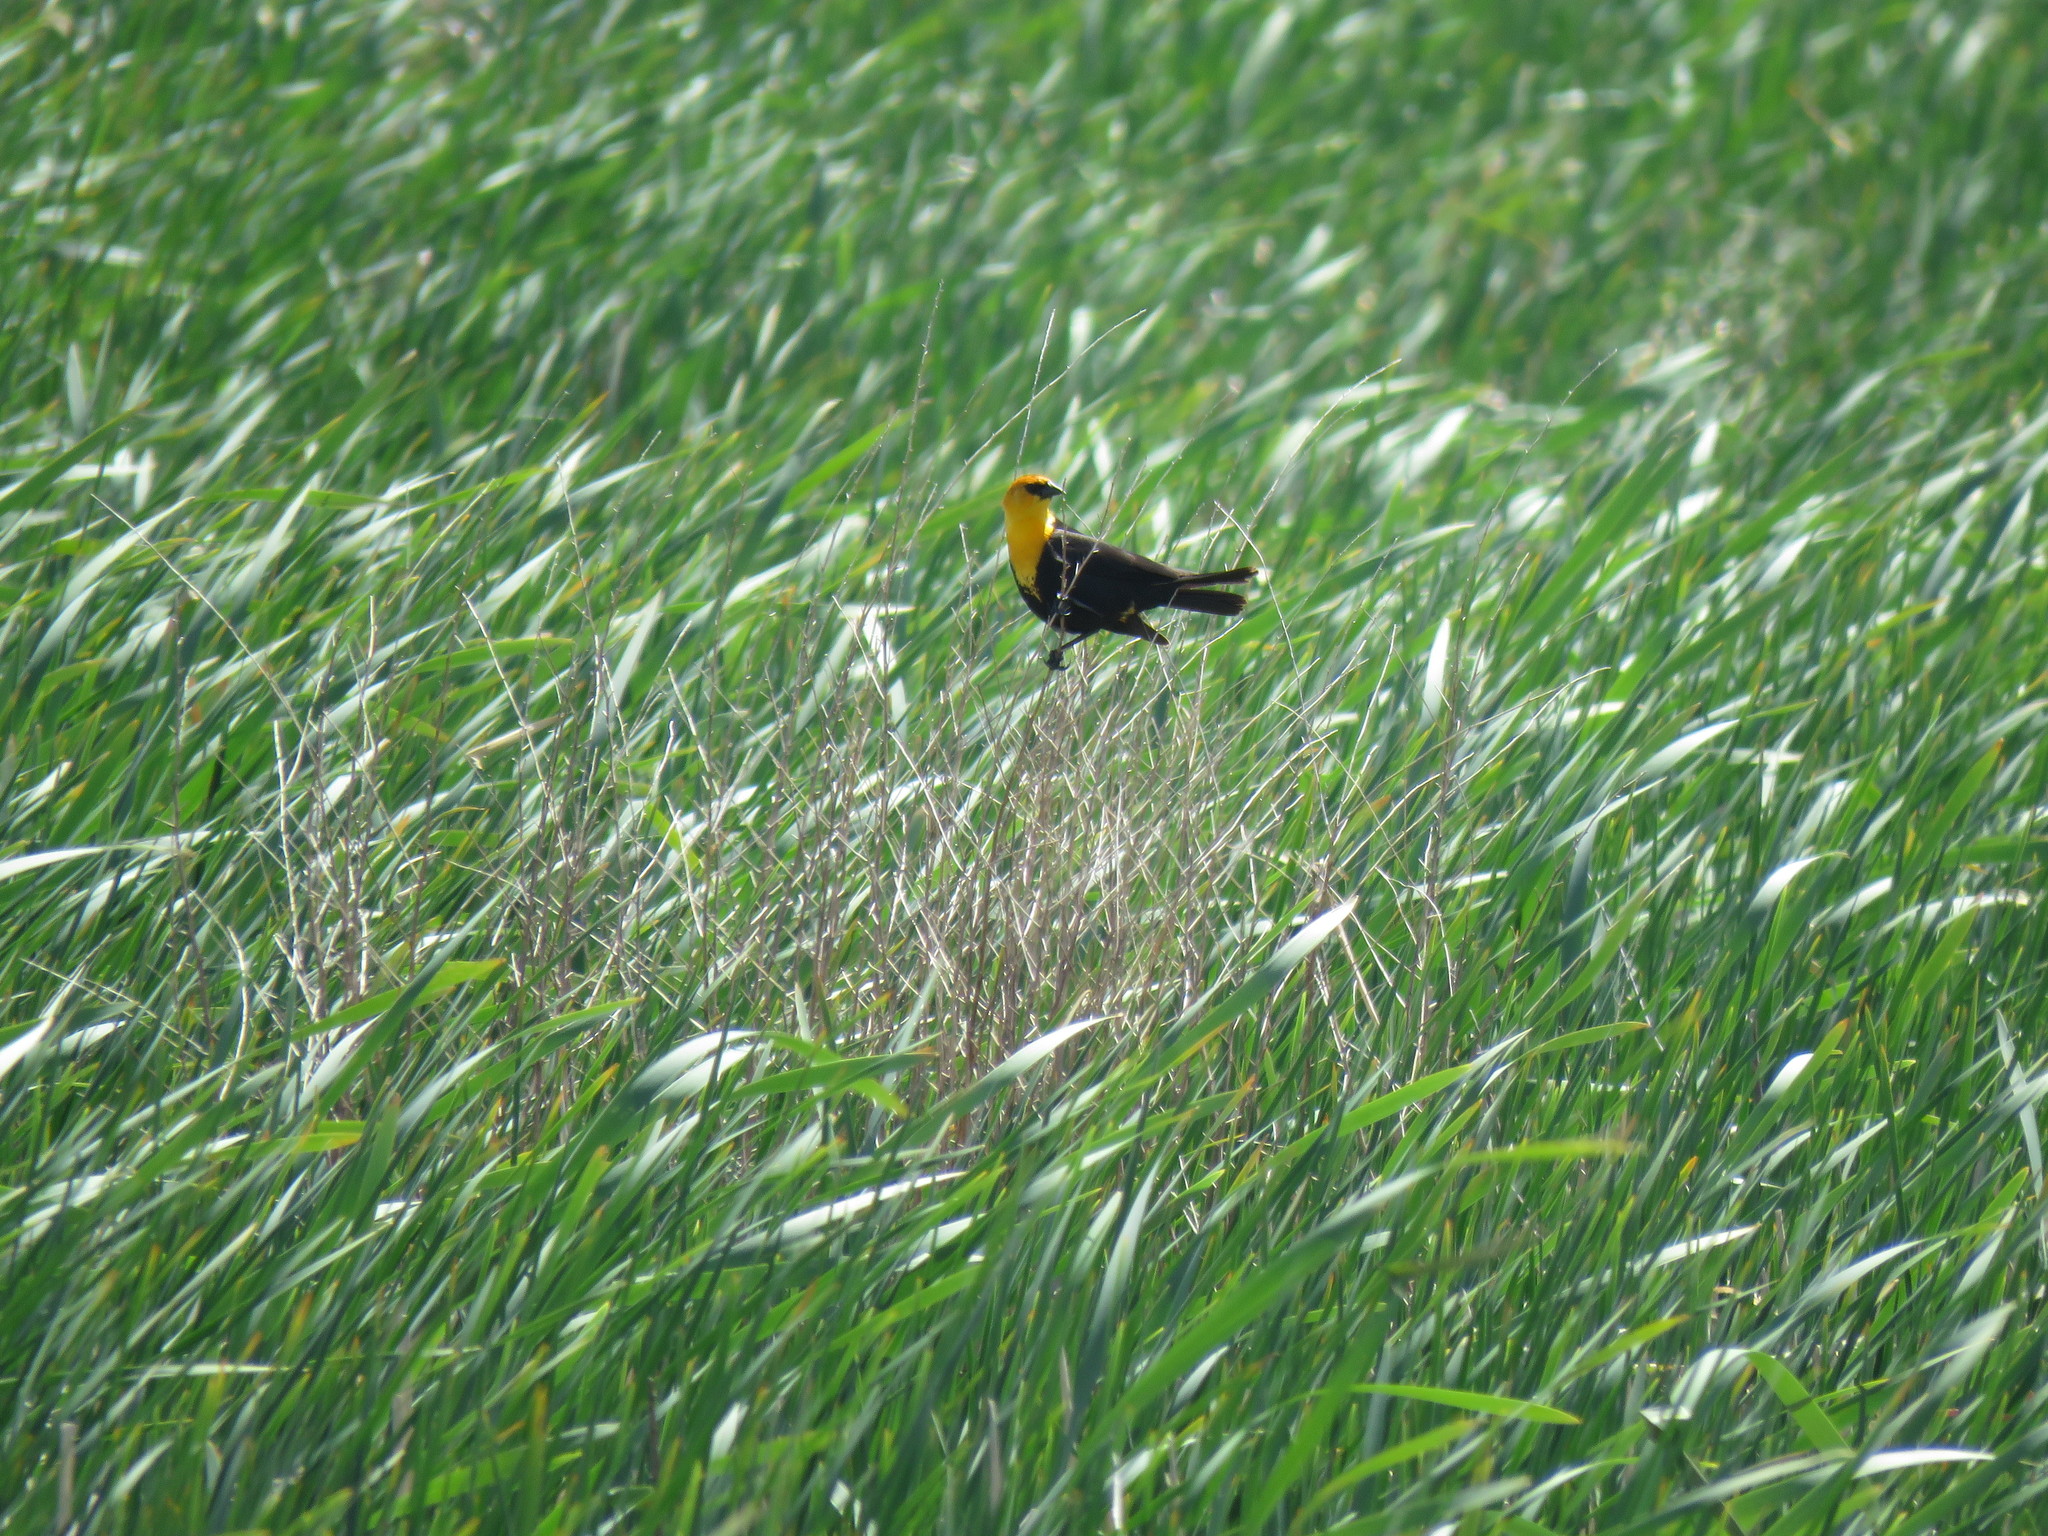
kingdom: Animalia
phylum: Chordata
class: Aves
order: Passeriformes
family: Icteridae
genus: Xanthocephalus
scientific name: Xanthocephalus xanthocephalus
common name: Yellow-headed blackbird
